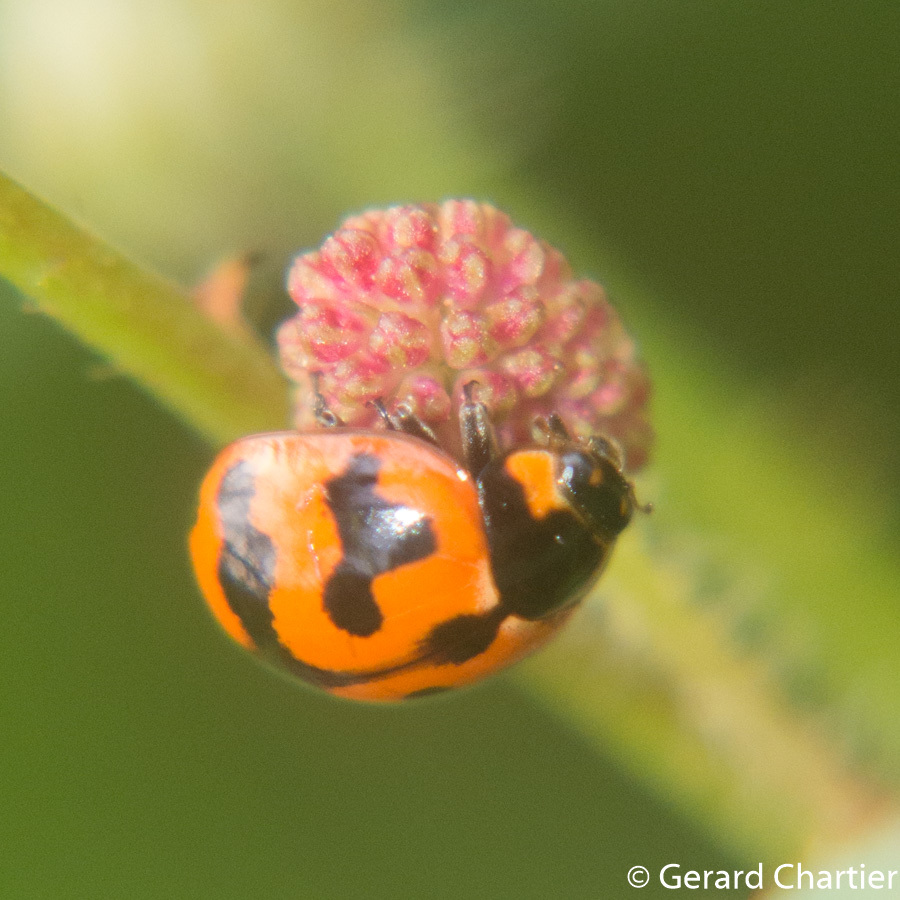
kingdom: Animalia
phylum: Arthropoda
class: Insecta
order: Coleoptera
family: Coccinellidae
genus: Coccinella
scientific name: Coccinella transversalis
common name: Transverse lady beetle
